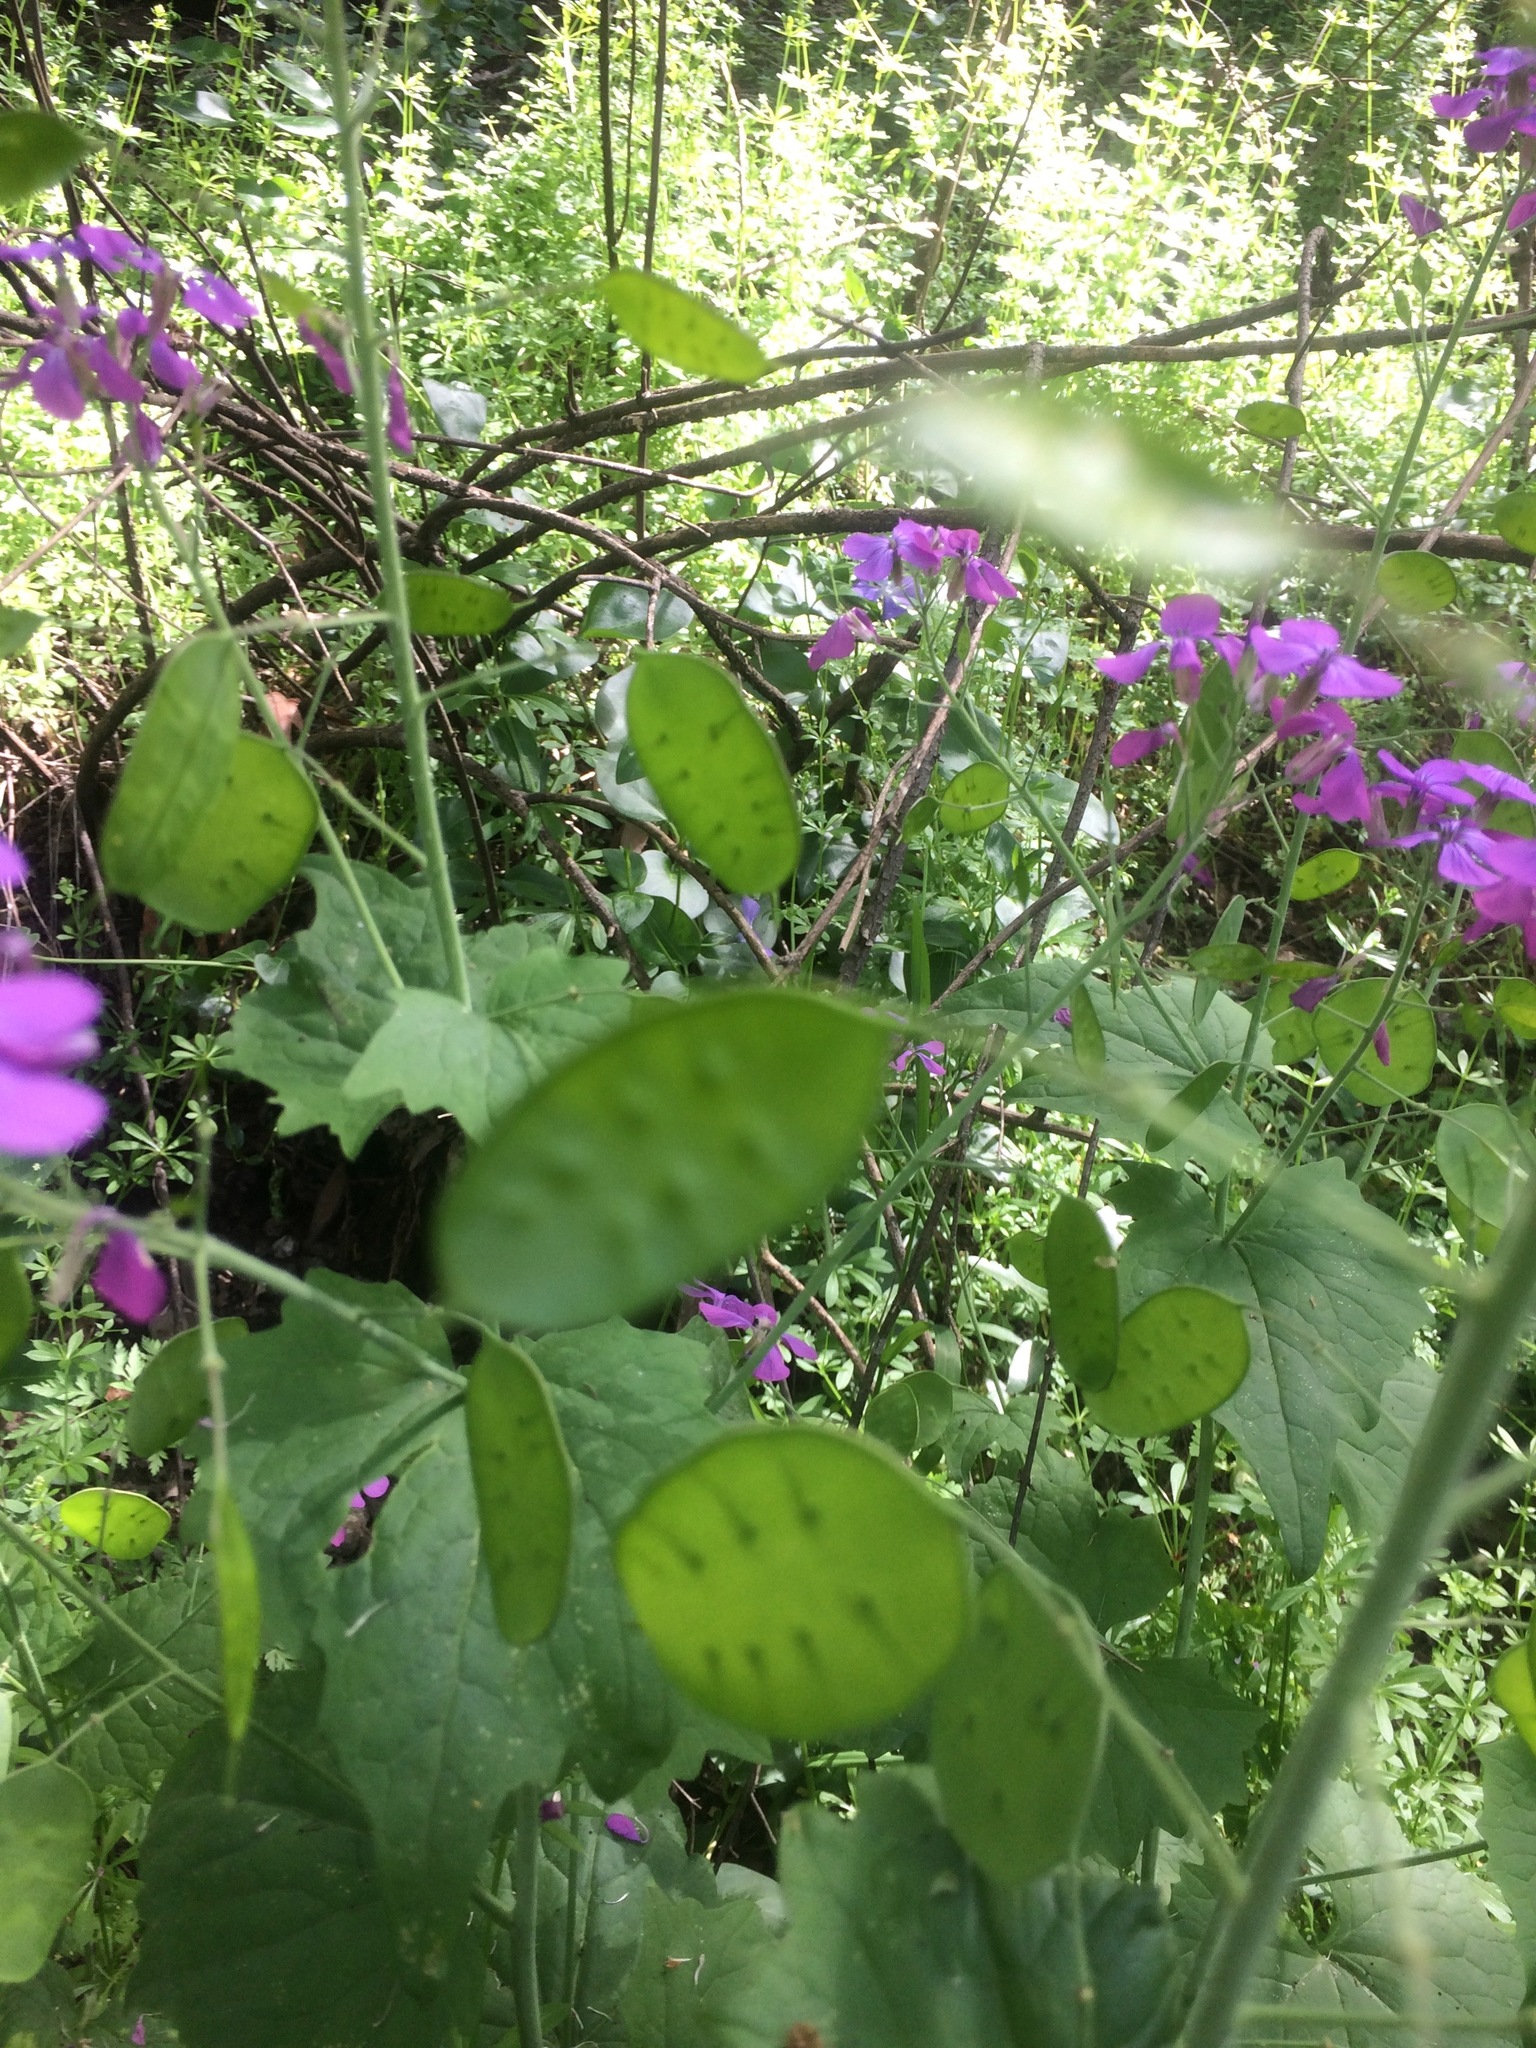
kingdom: Plantae
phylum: Tracheophyta
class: Magnoliopsida
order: Brassicales
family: Brassicaceae
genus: Lunaria
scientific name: Lunaria annua
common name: Honesty
